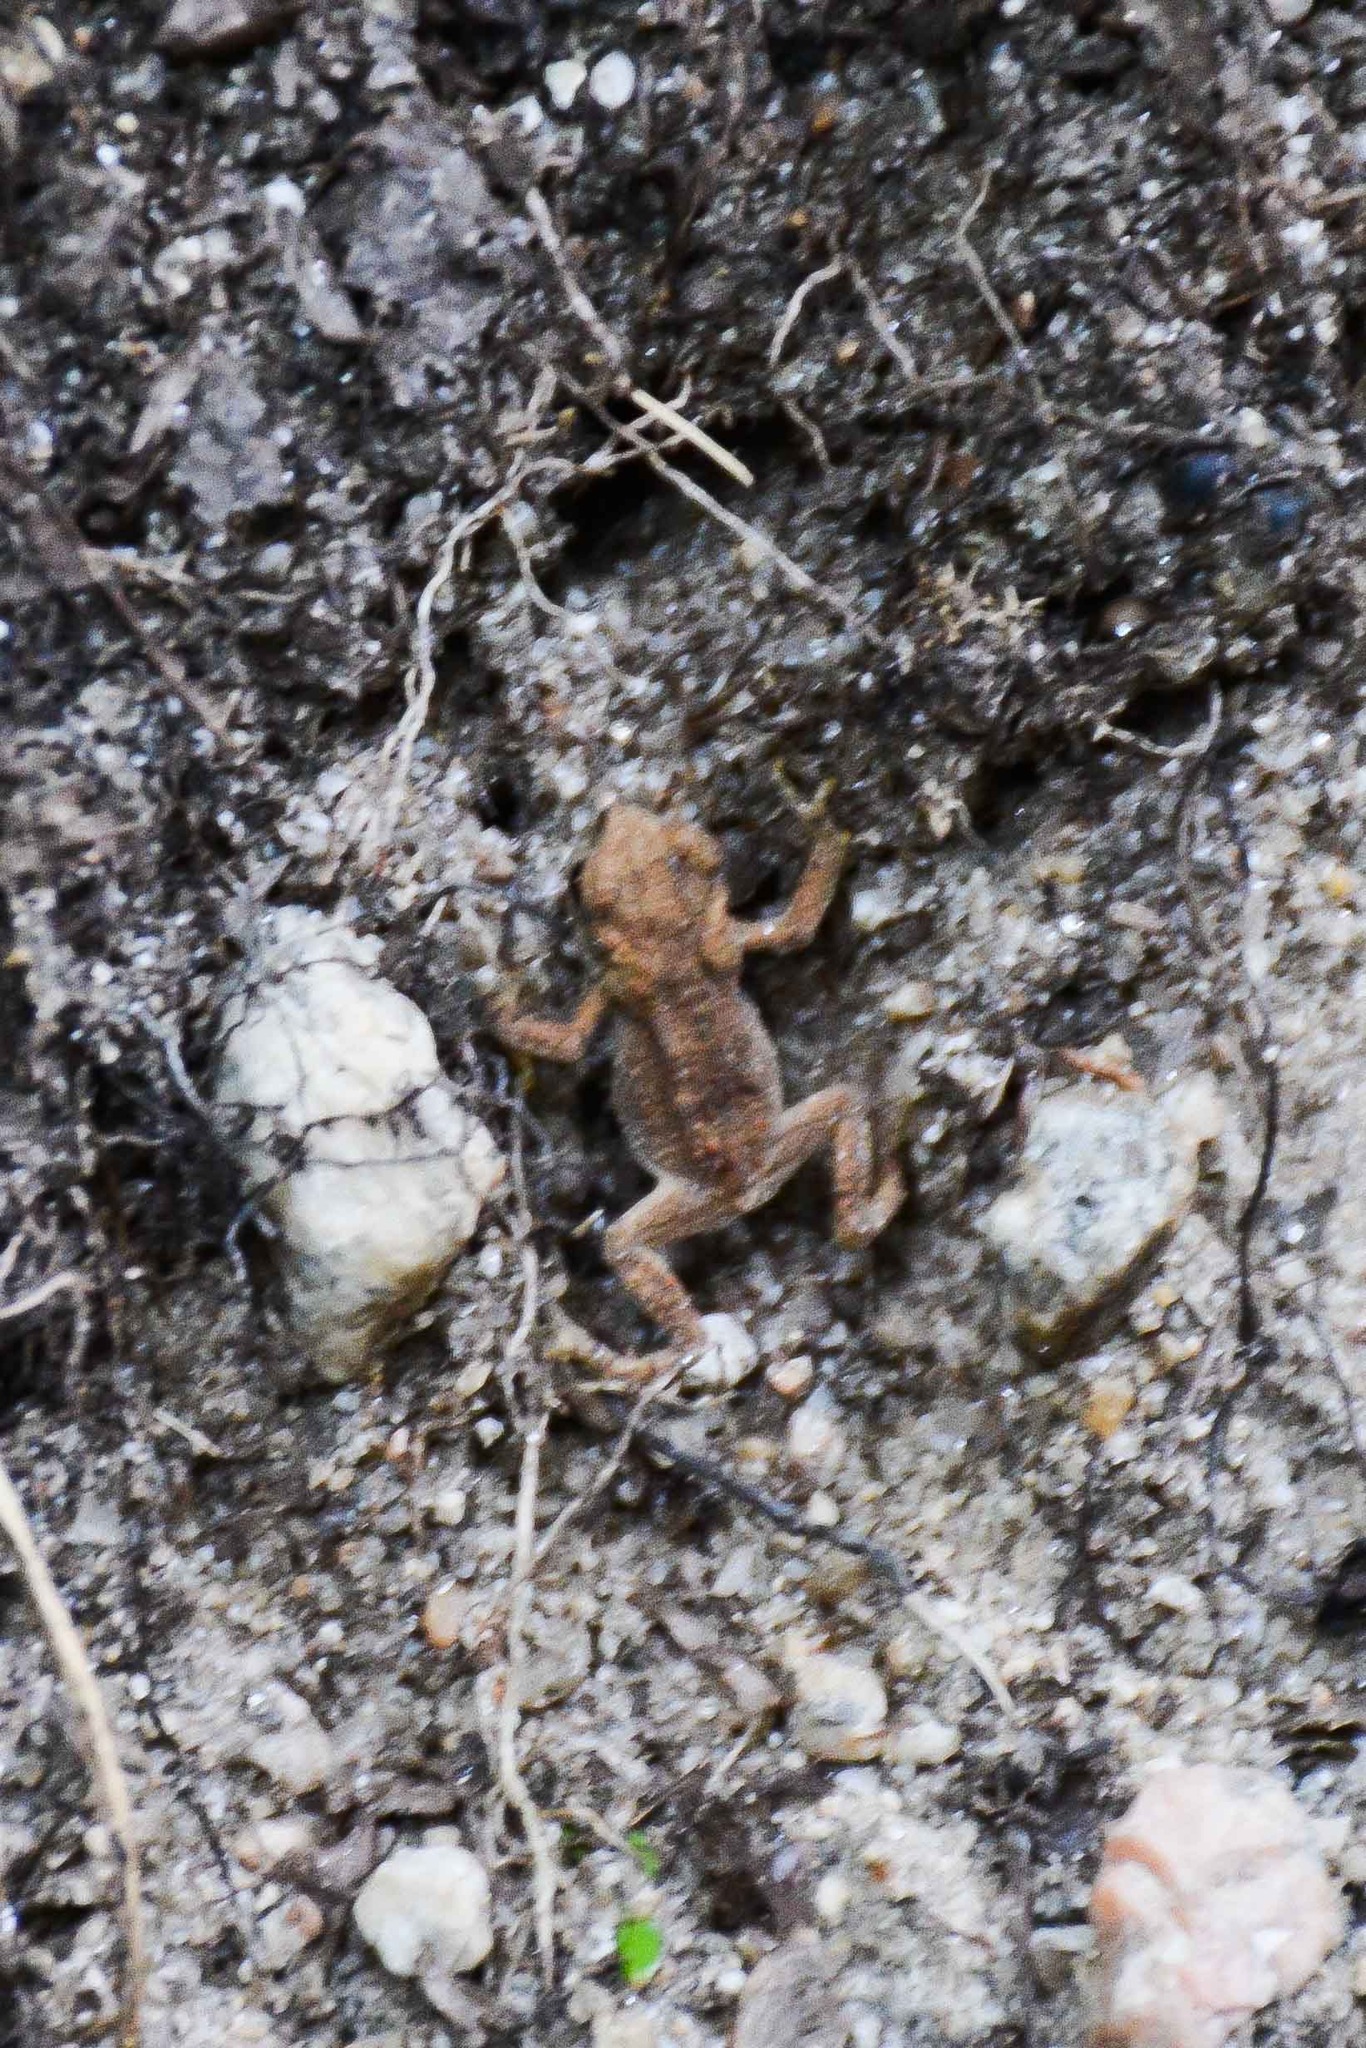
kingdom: Animalia
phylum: Chordata
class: Amphibia
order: Anura
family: Bufonidae
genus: Anaxyrus
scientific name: Anaxyrus americanus
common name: American toad
